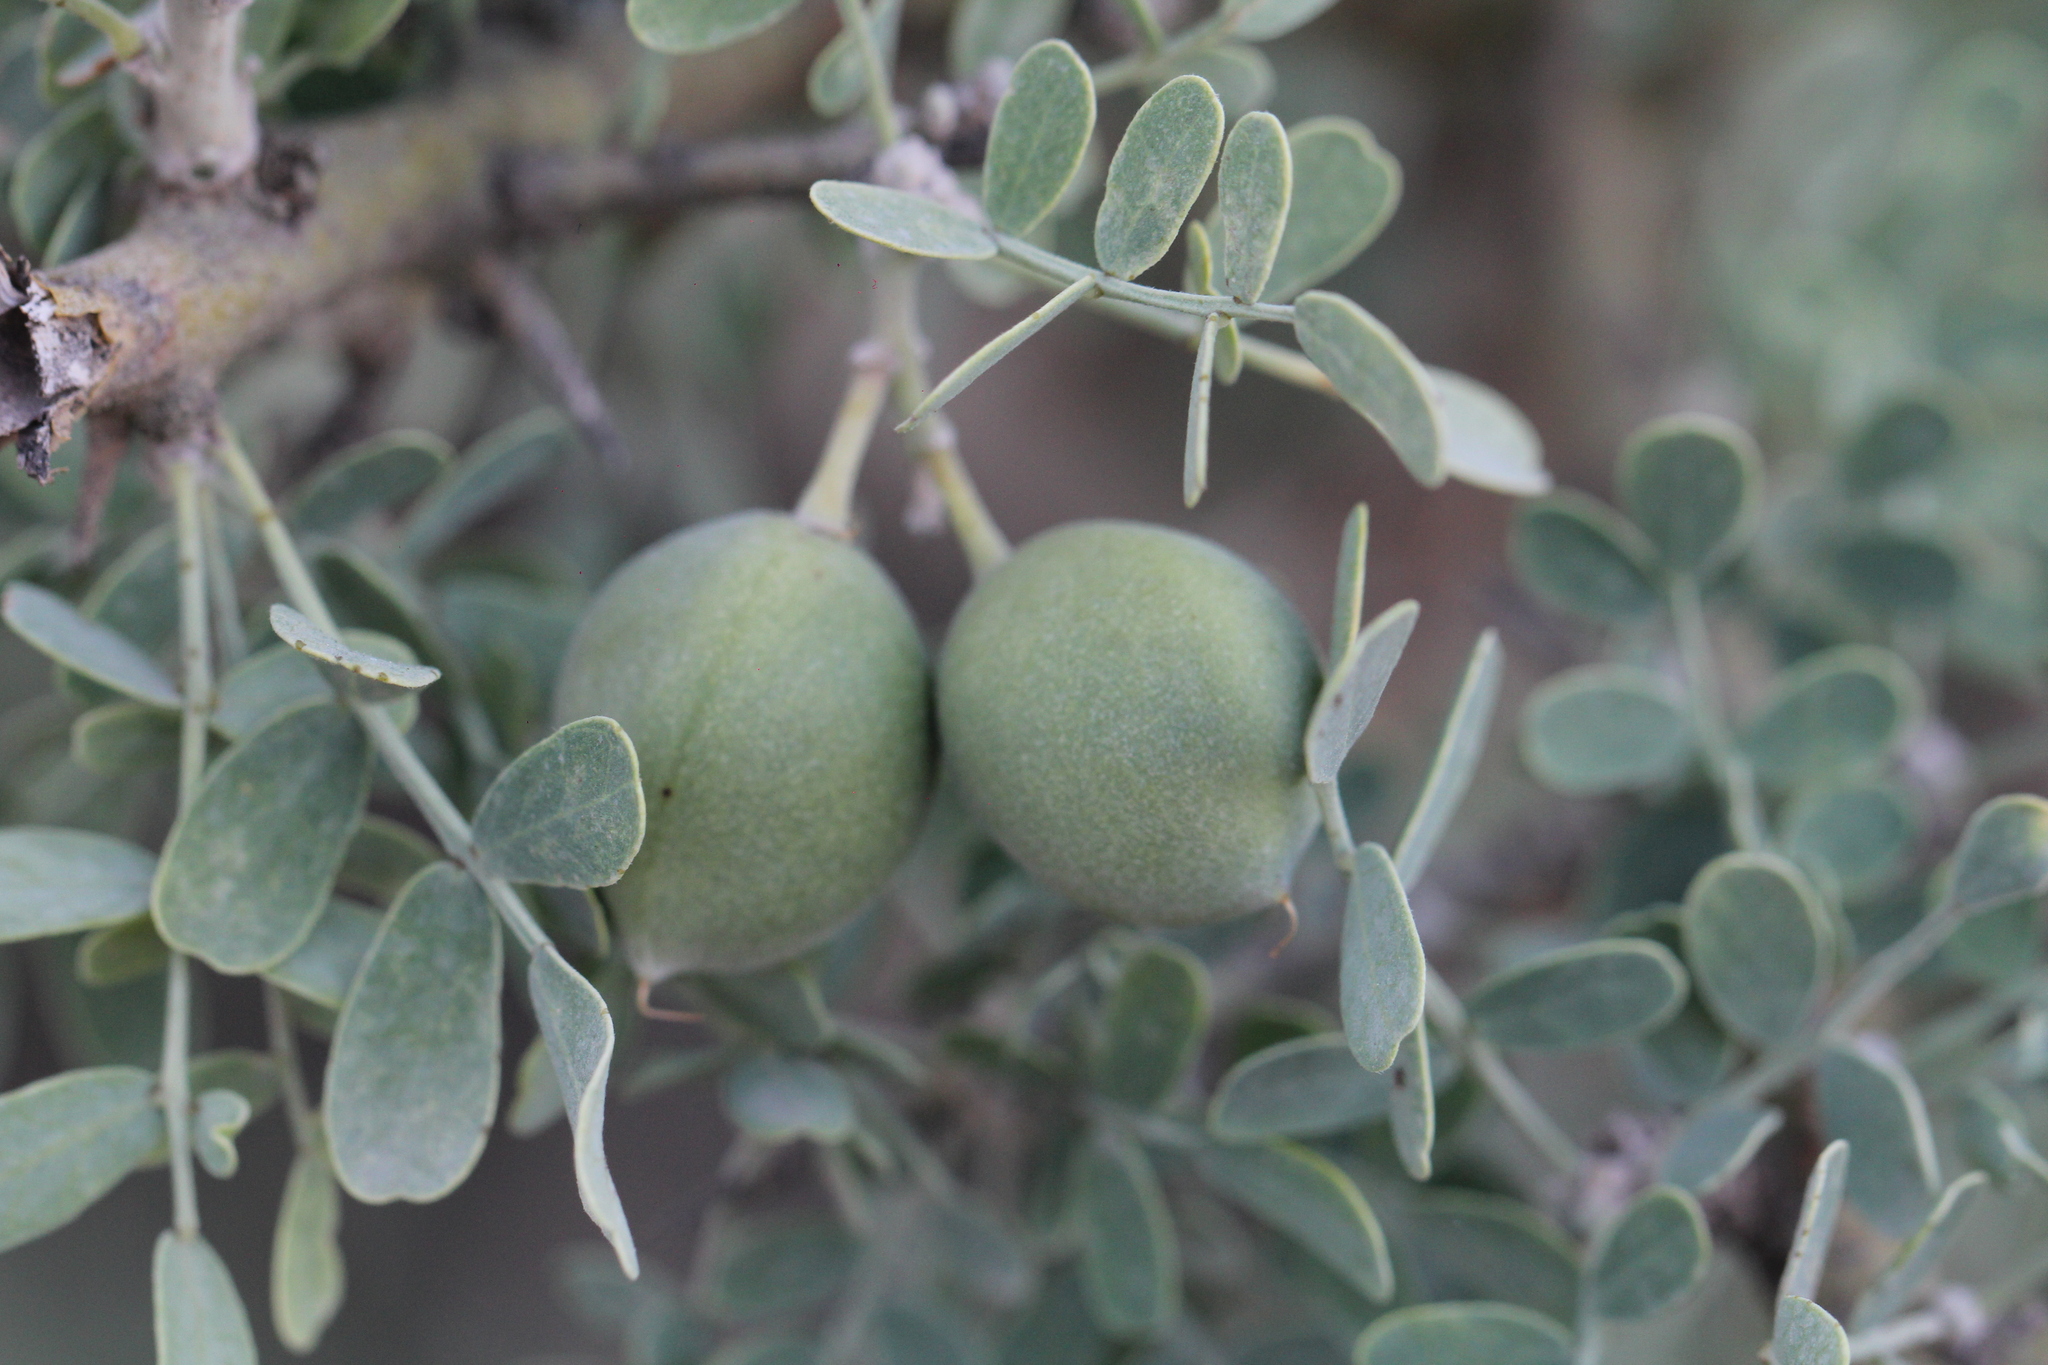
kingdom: Plantae
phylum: Tracheophyta
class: Magnoliopsida
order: Fabales
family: Fabaceae
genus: Geoffroea
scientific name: Geoffroea decorticans
